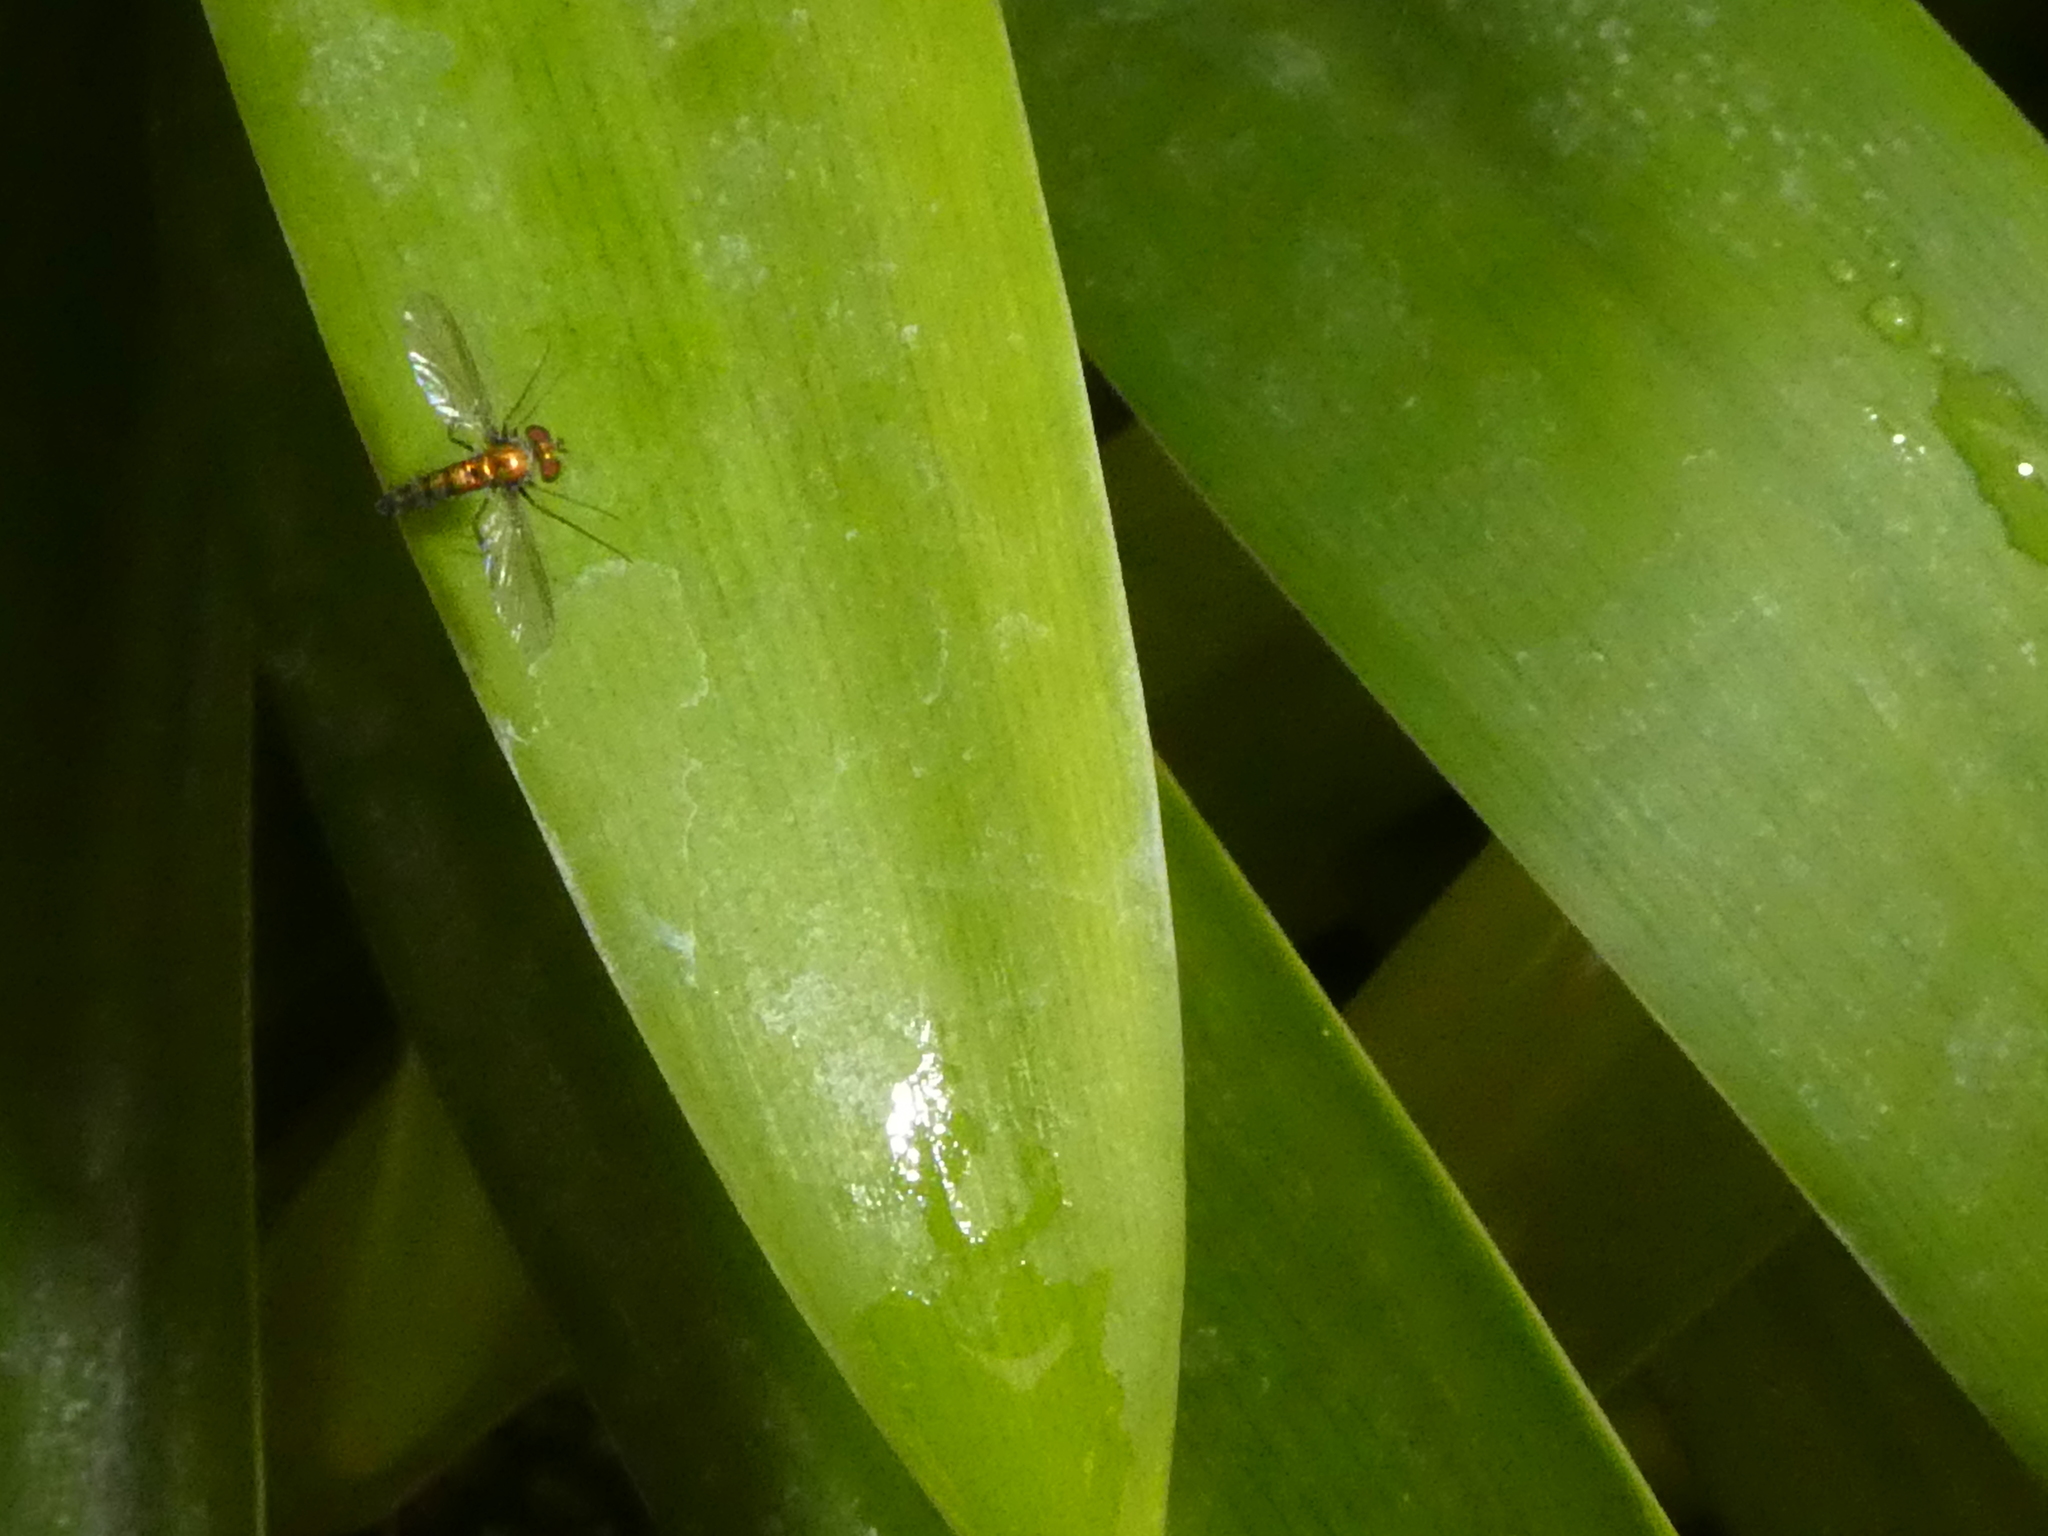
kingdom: Animalia
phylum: Arthropoda
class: Insecta
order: Diptera
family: Dolichopodidae
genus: Condylostylus
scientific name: Condylostylus longicornis
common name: Long-legged fly
